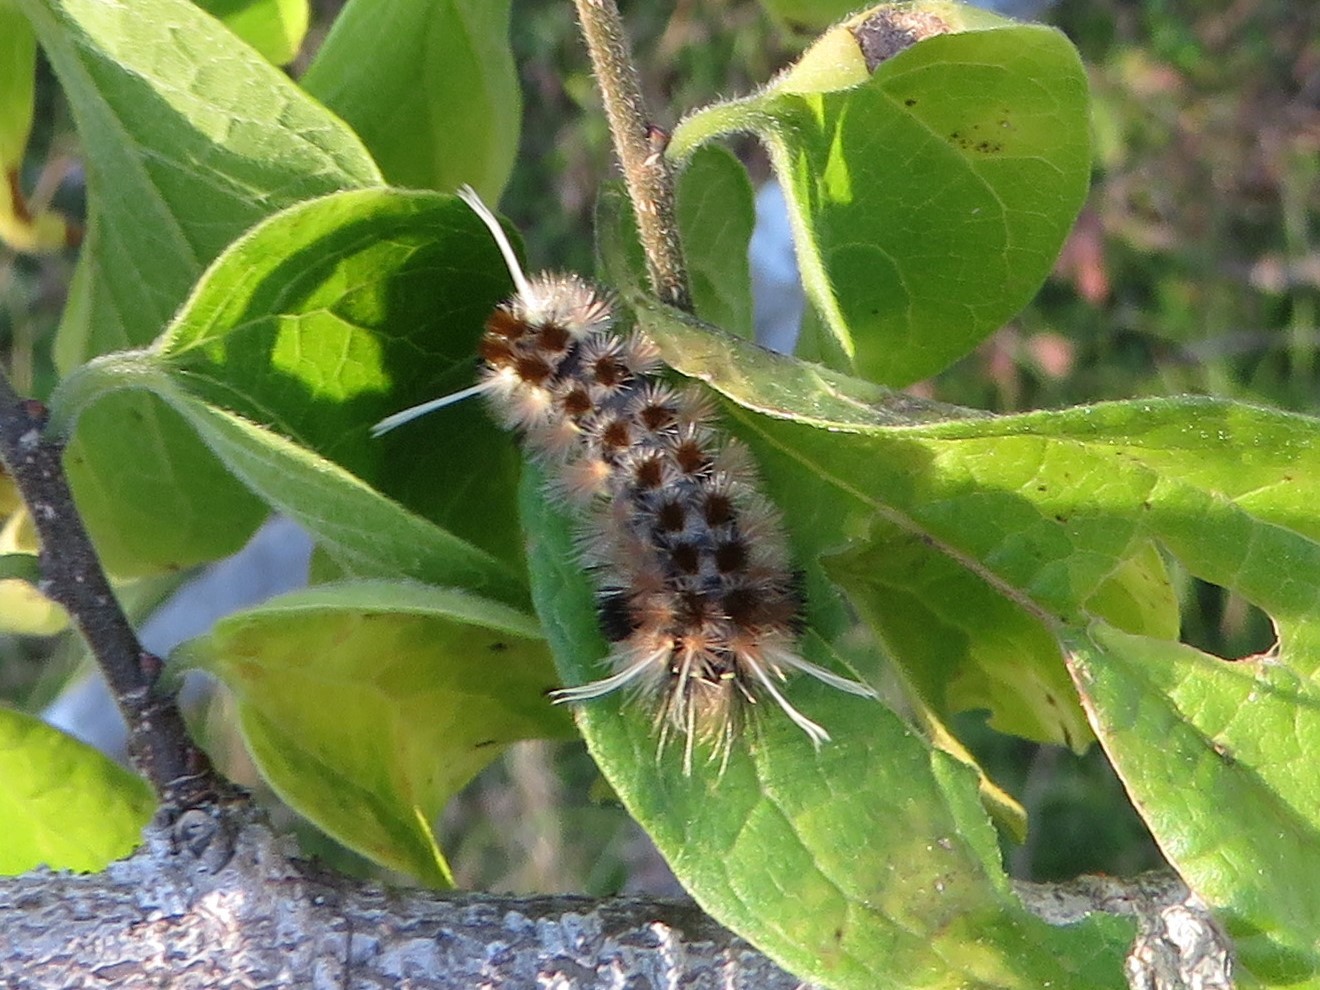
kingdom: Animalia
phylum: Arthropoda
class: Insecta
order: Lepidoptera
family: Erebidae
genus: Lophocampa
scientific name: Lophocampa annulosa
